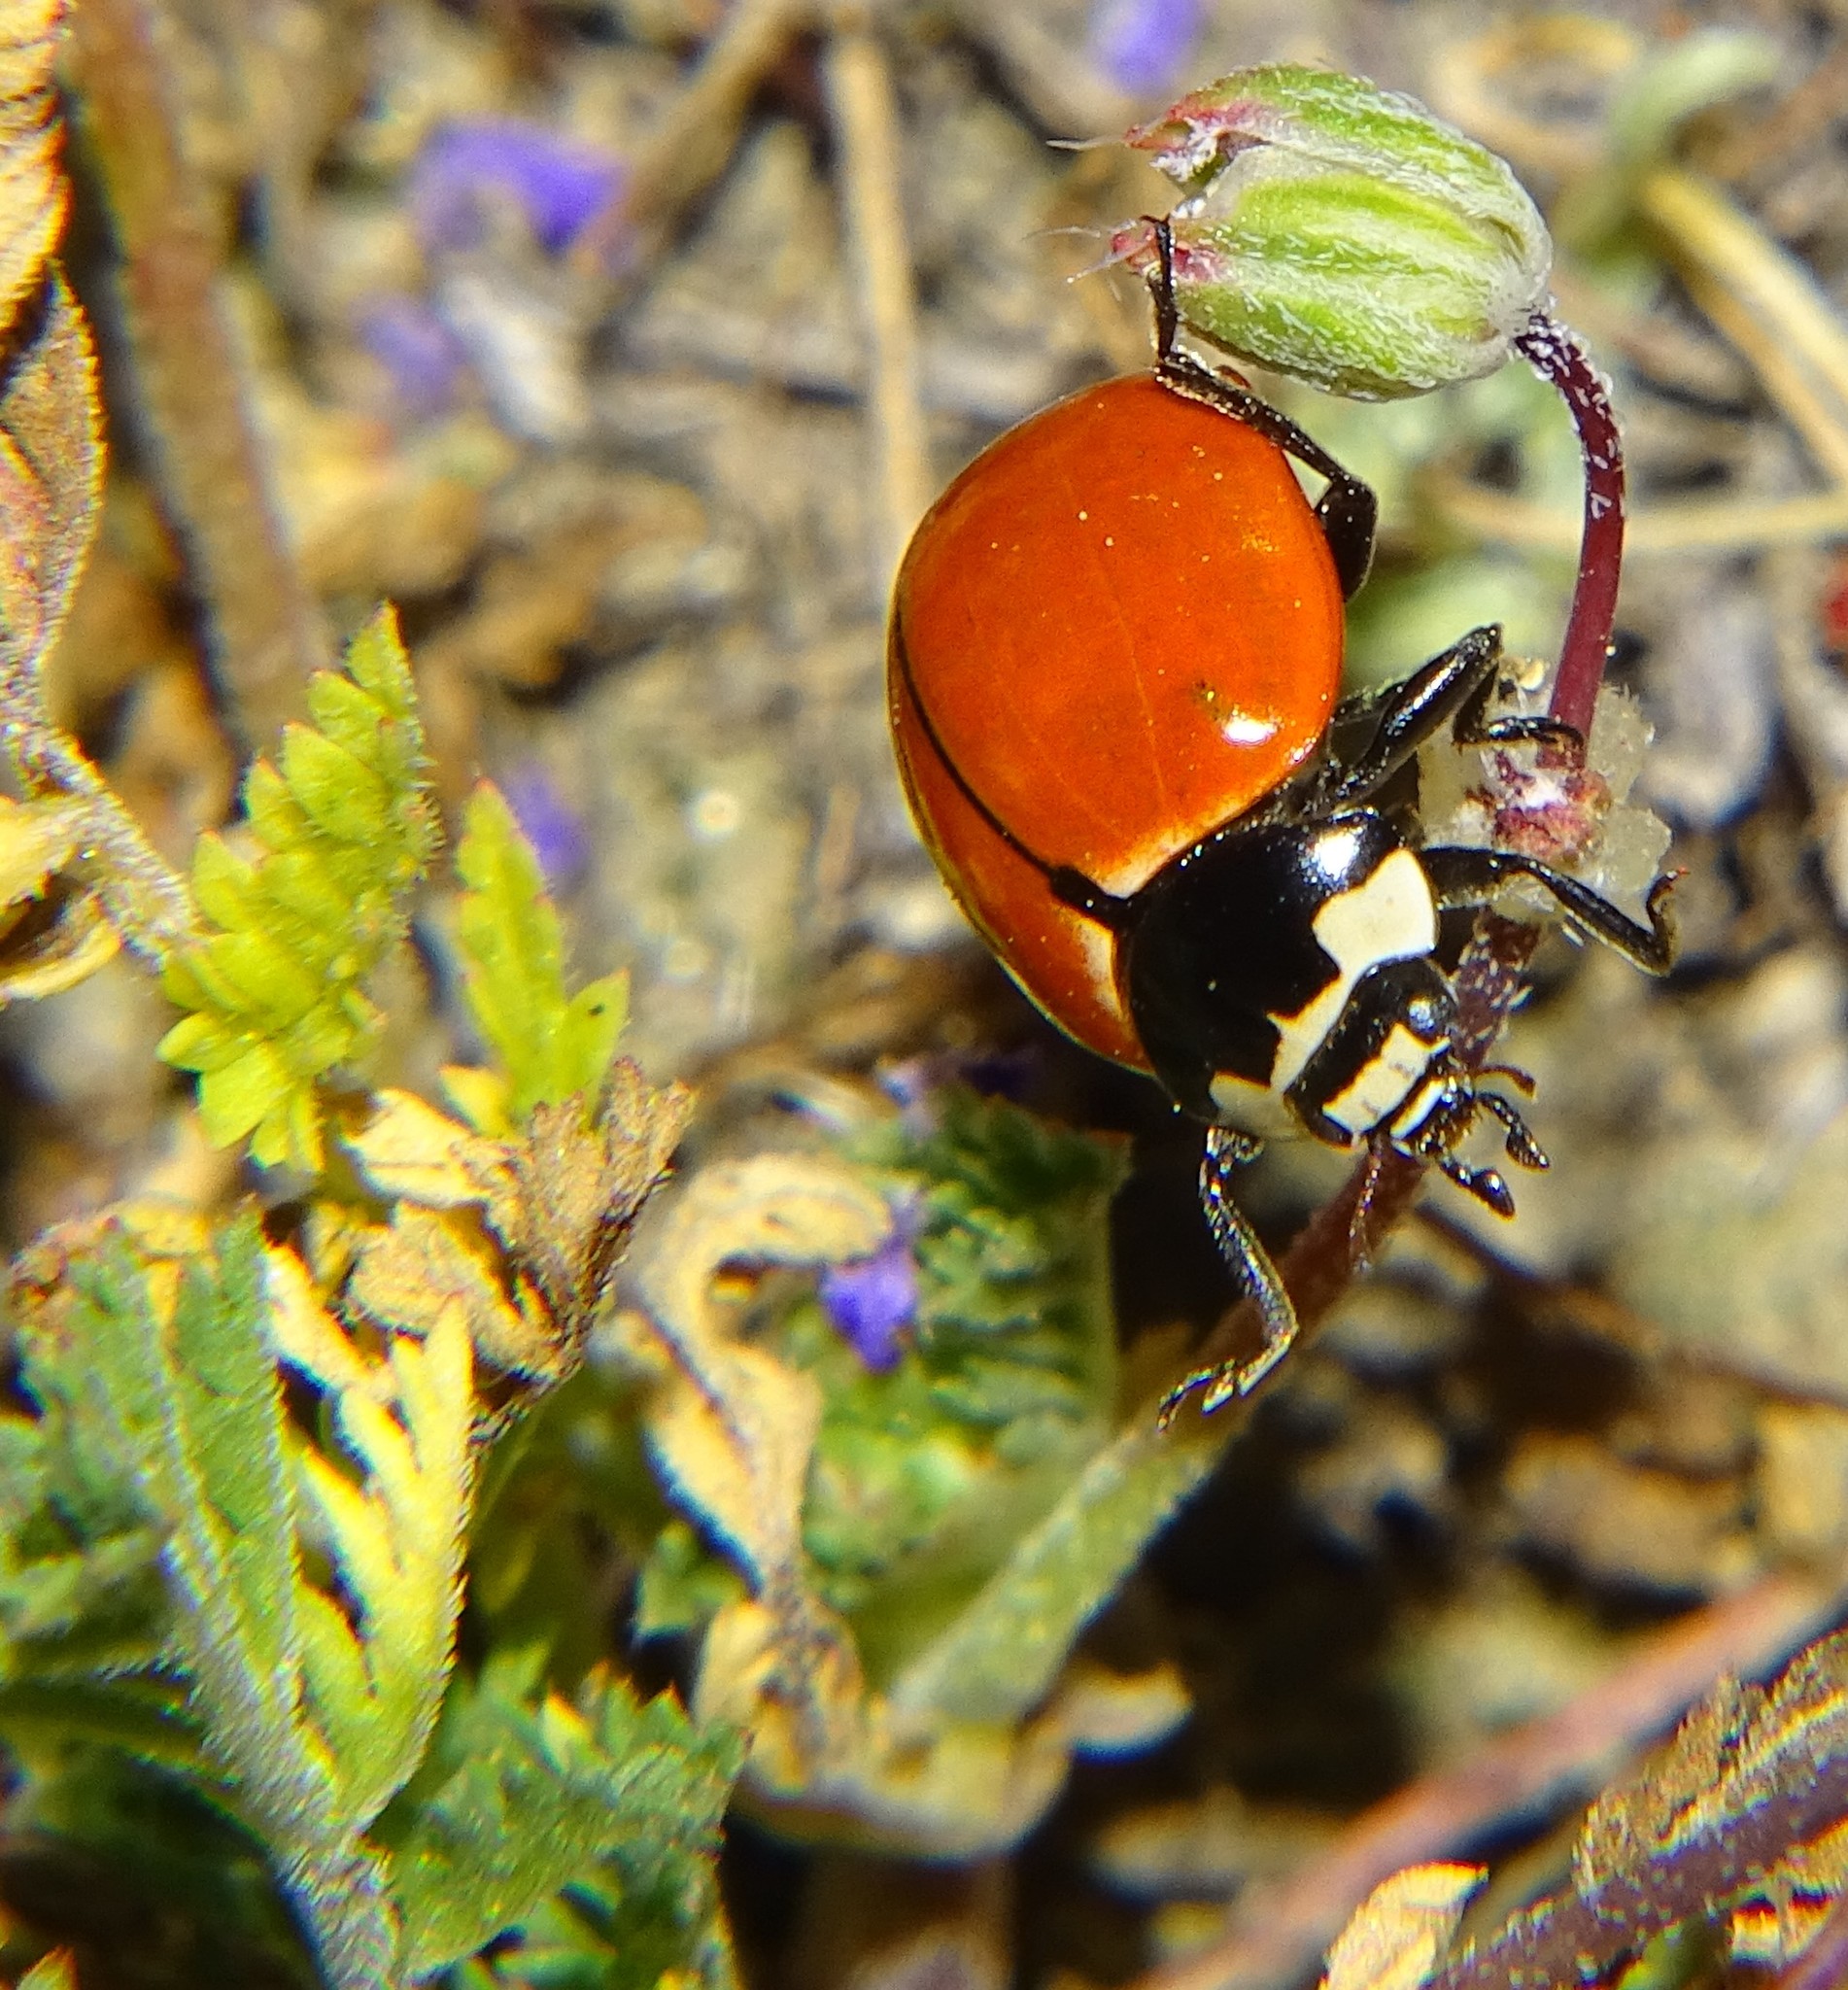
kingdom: Animalia
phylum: Arthropoda
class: Insecta
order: Coleoptera
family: Coccinellidae
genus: Coccinella
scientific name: Coccinella novemnotata
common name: Nine-spotted lady beetle
